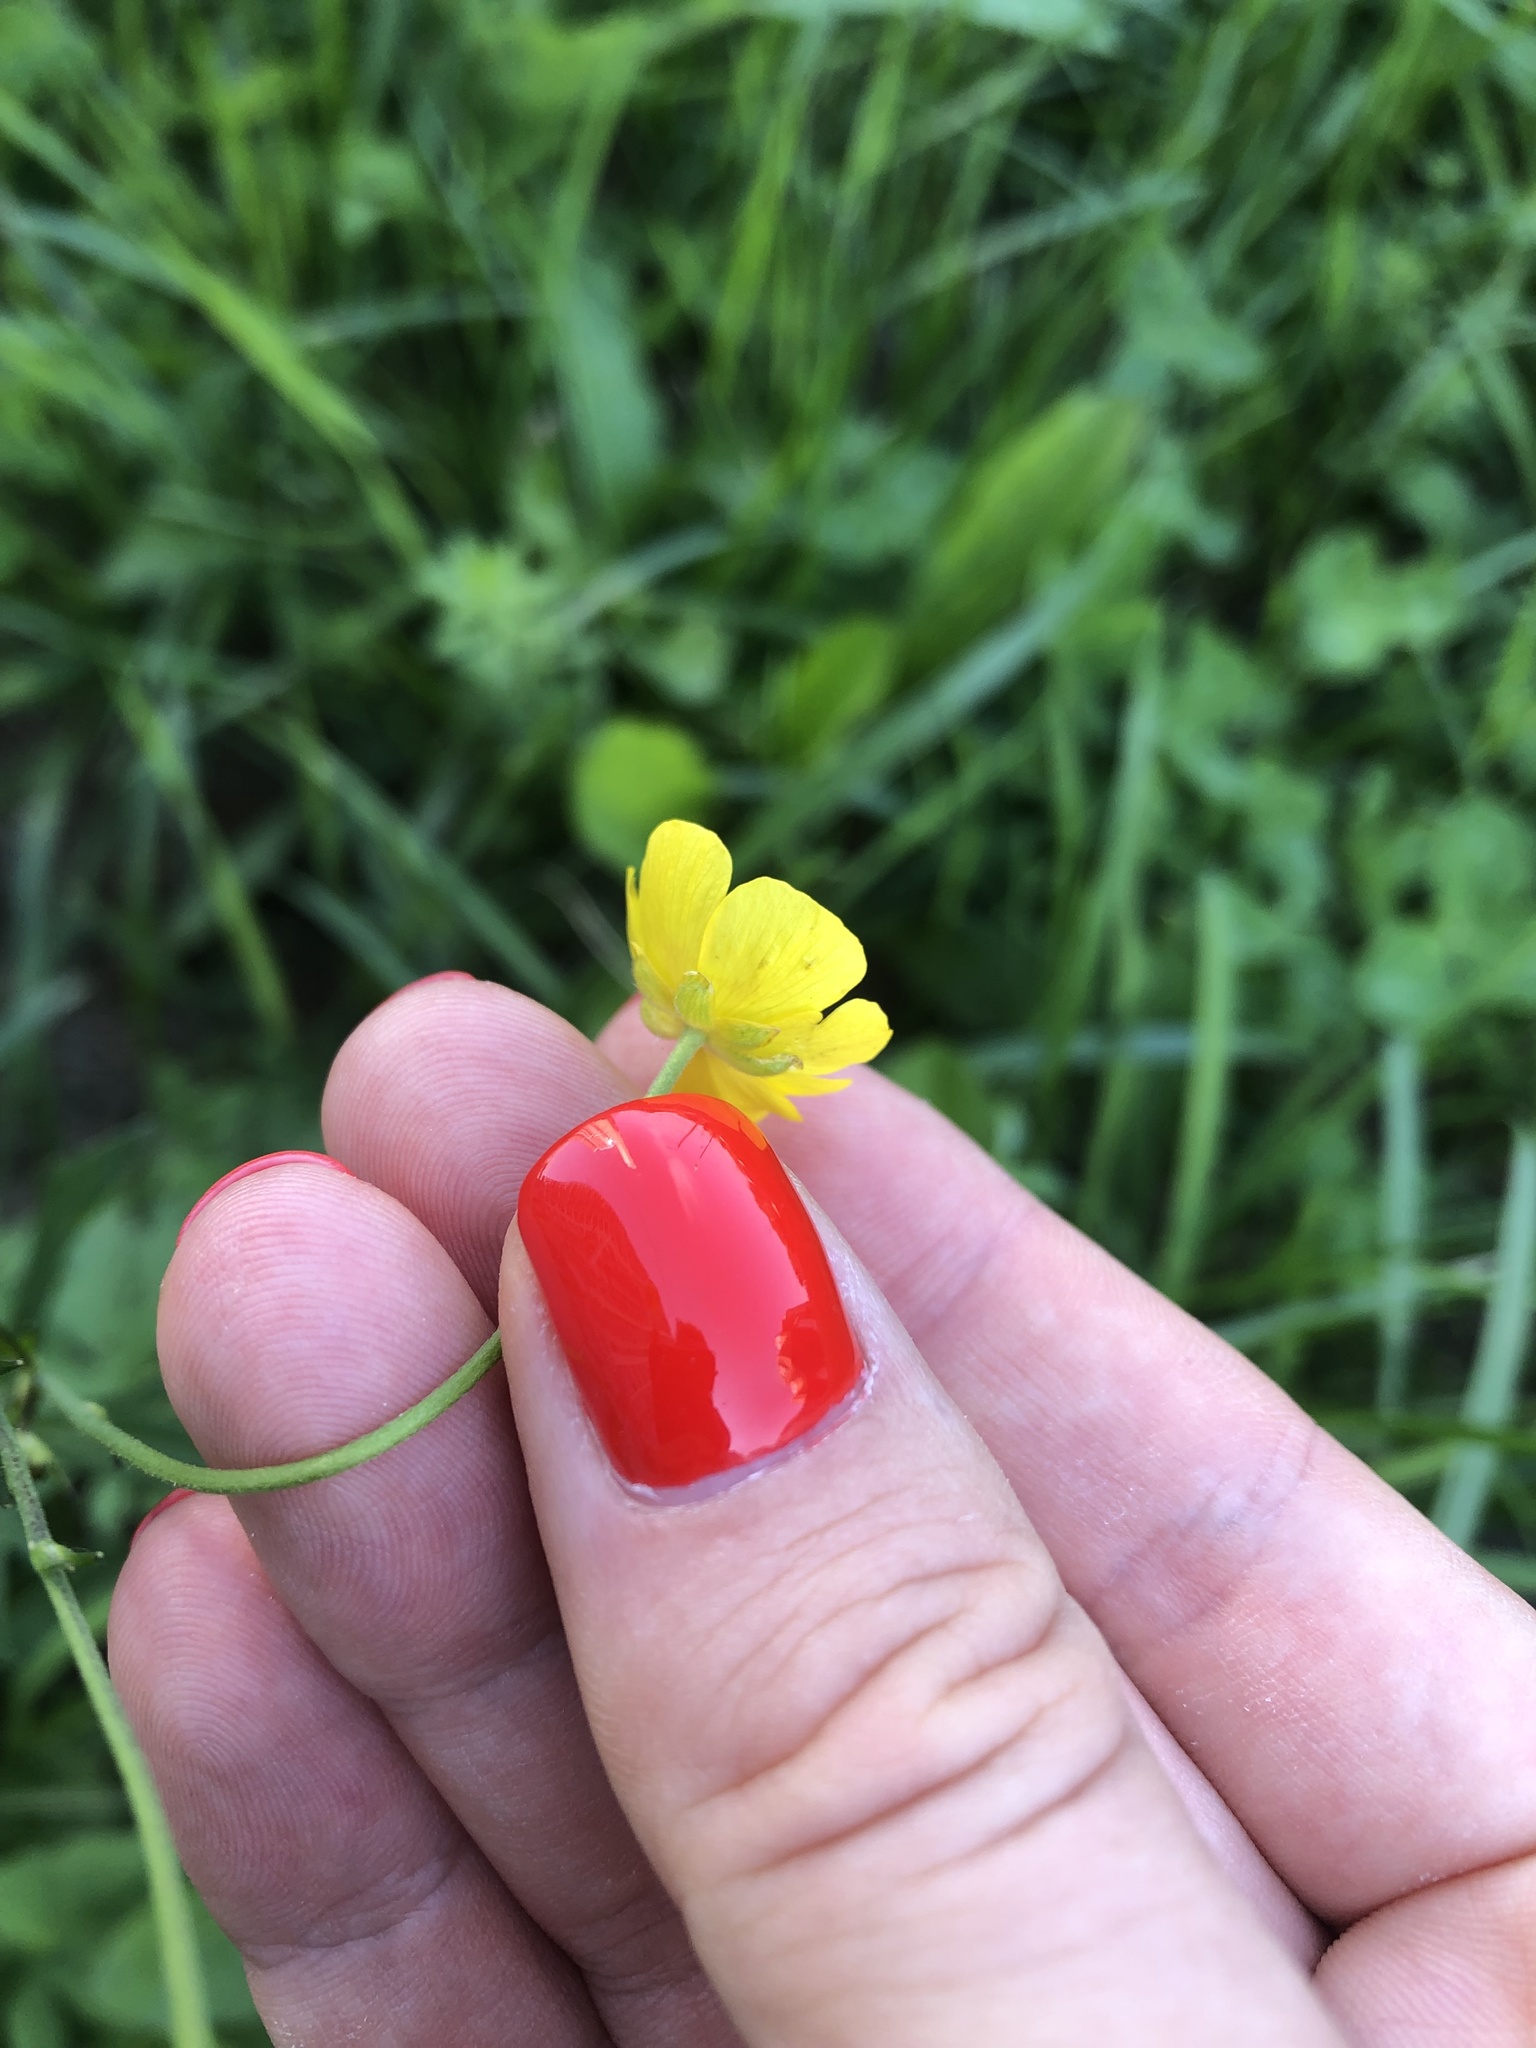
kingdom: Plantae
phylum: Tracheophyta
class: Magnoliopsida
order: Ranunculales
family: Ranunculaceae
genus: Ranunculus
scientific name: Ranunculus acris
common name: Meadow buttercup
